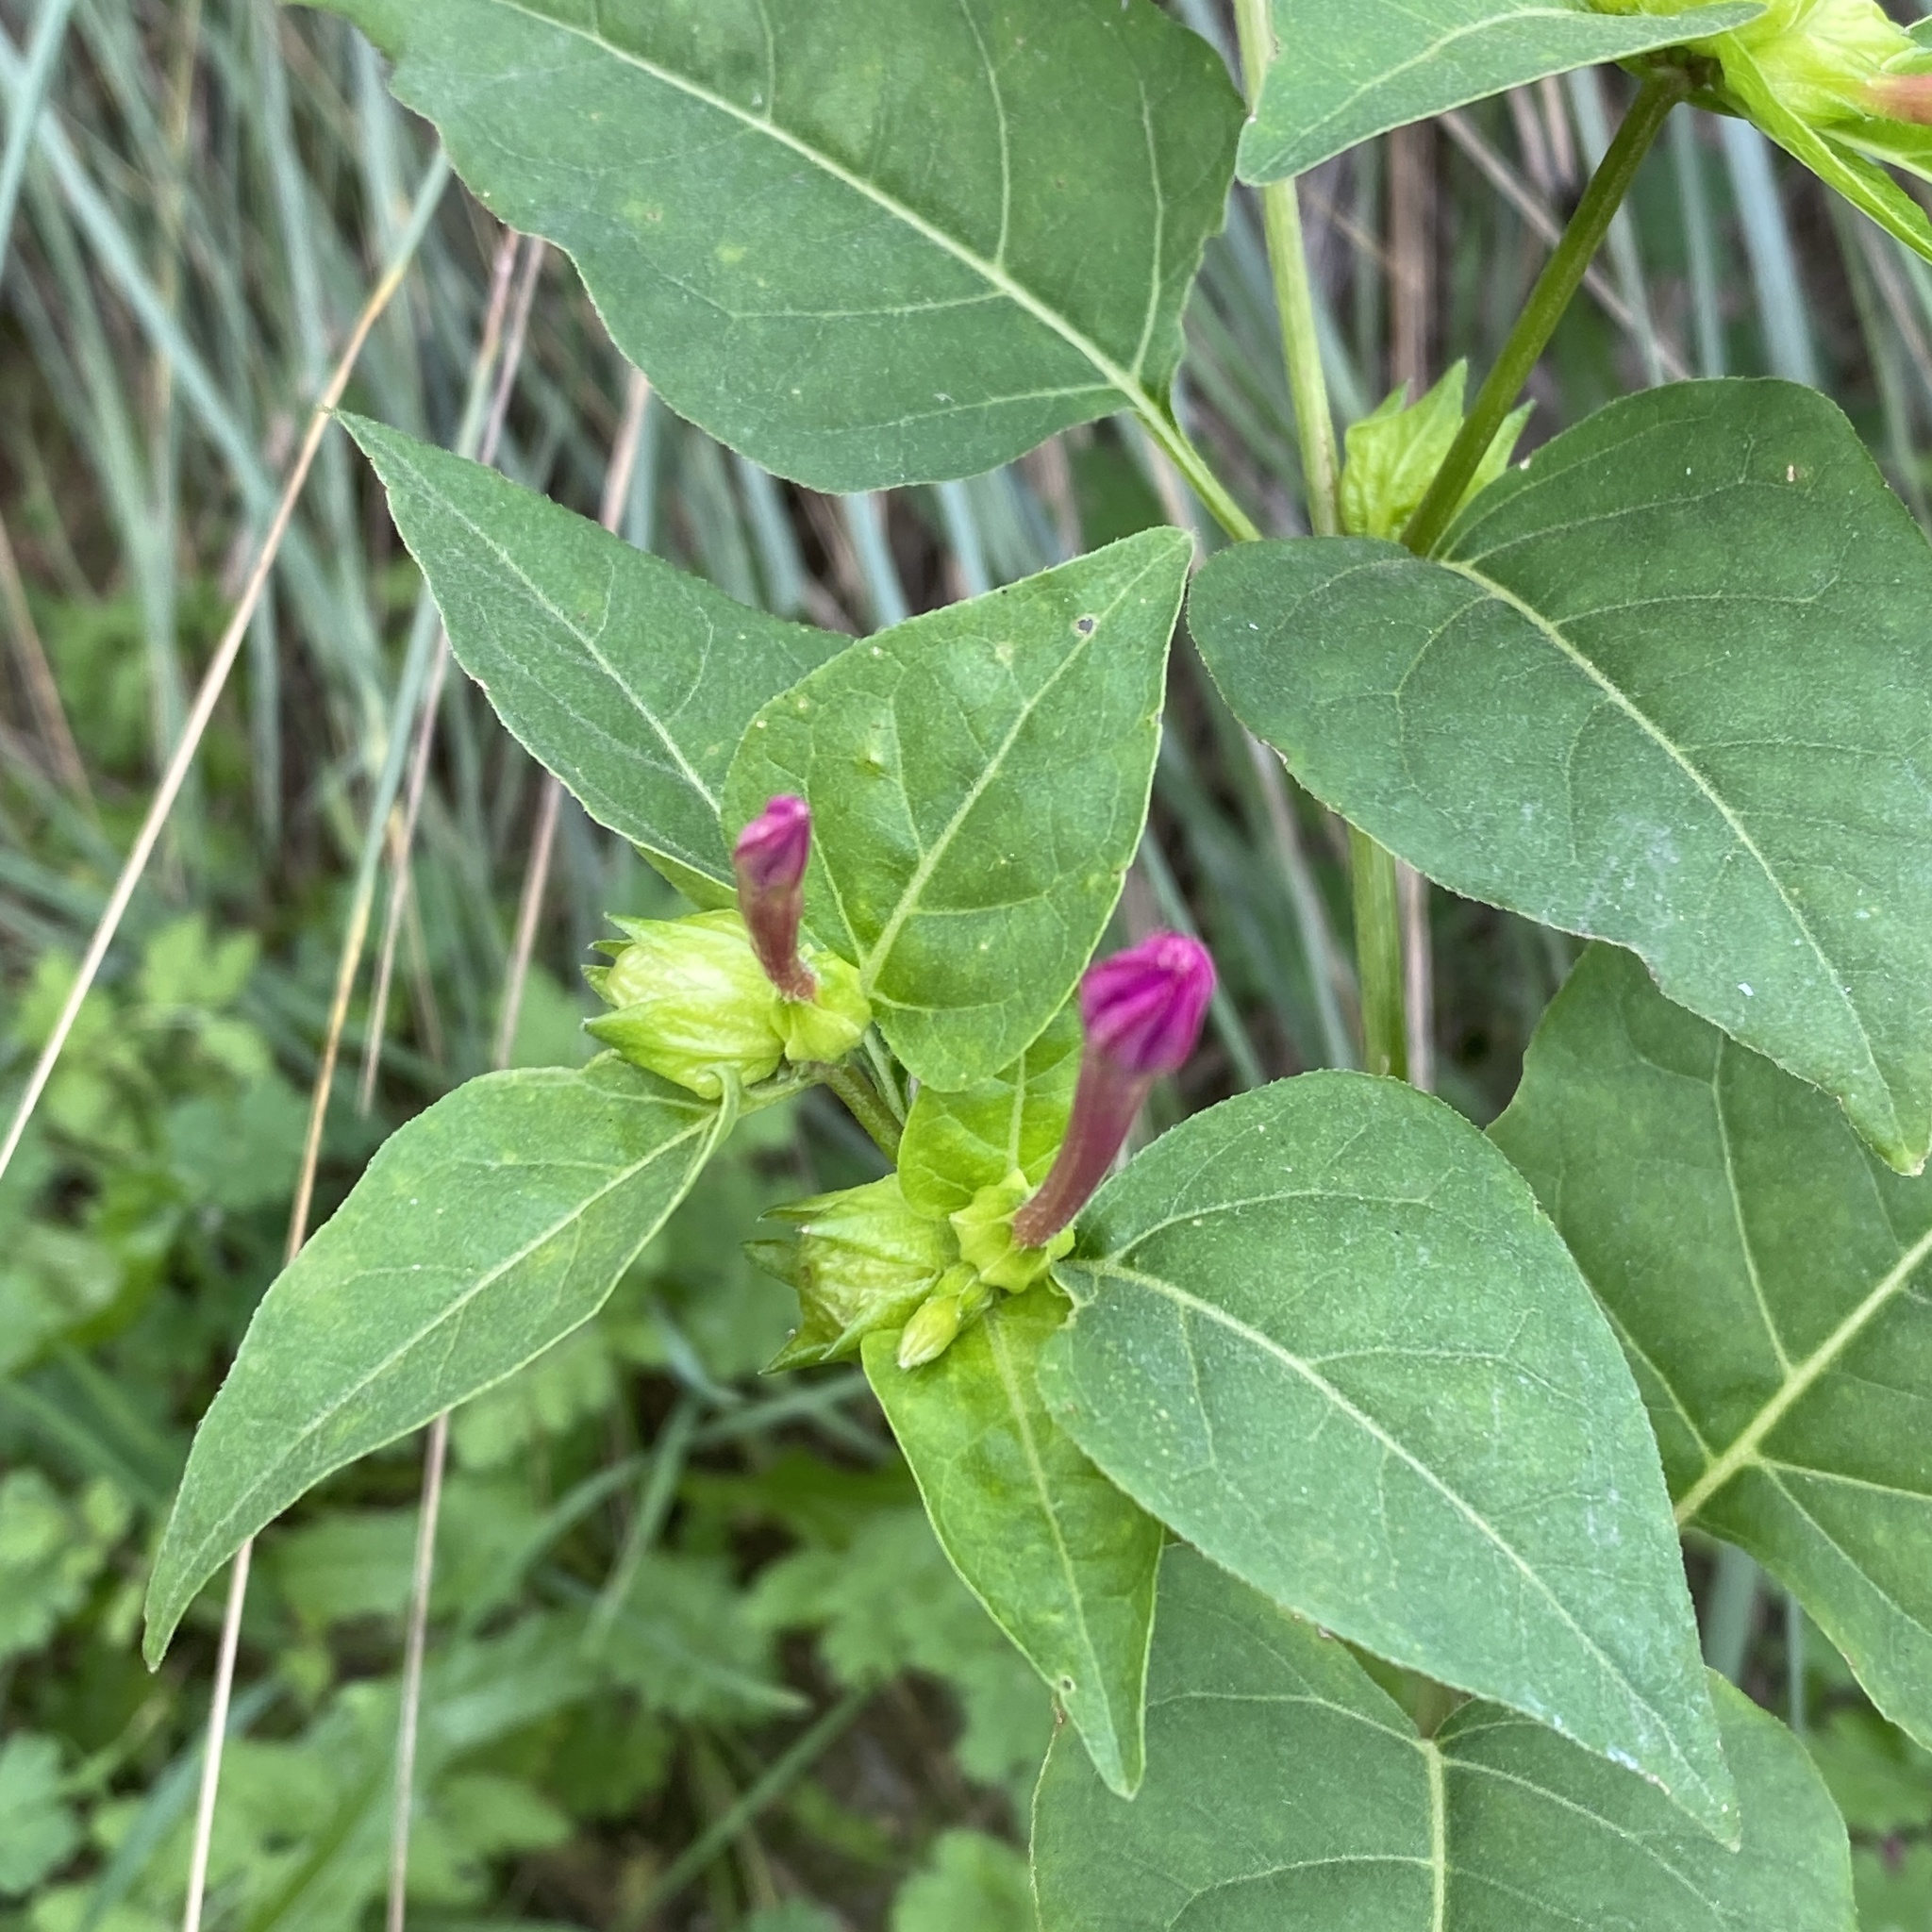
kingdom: Plantae
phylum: Tracheophyta
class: Magnoliopsida
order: Caryophyllales
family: Nyctaginaceae
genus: Mirabilis
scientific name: Mirabilis jalapa
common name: Marvel-of-peru
